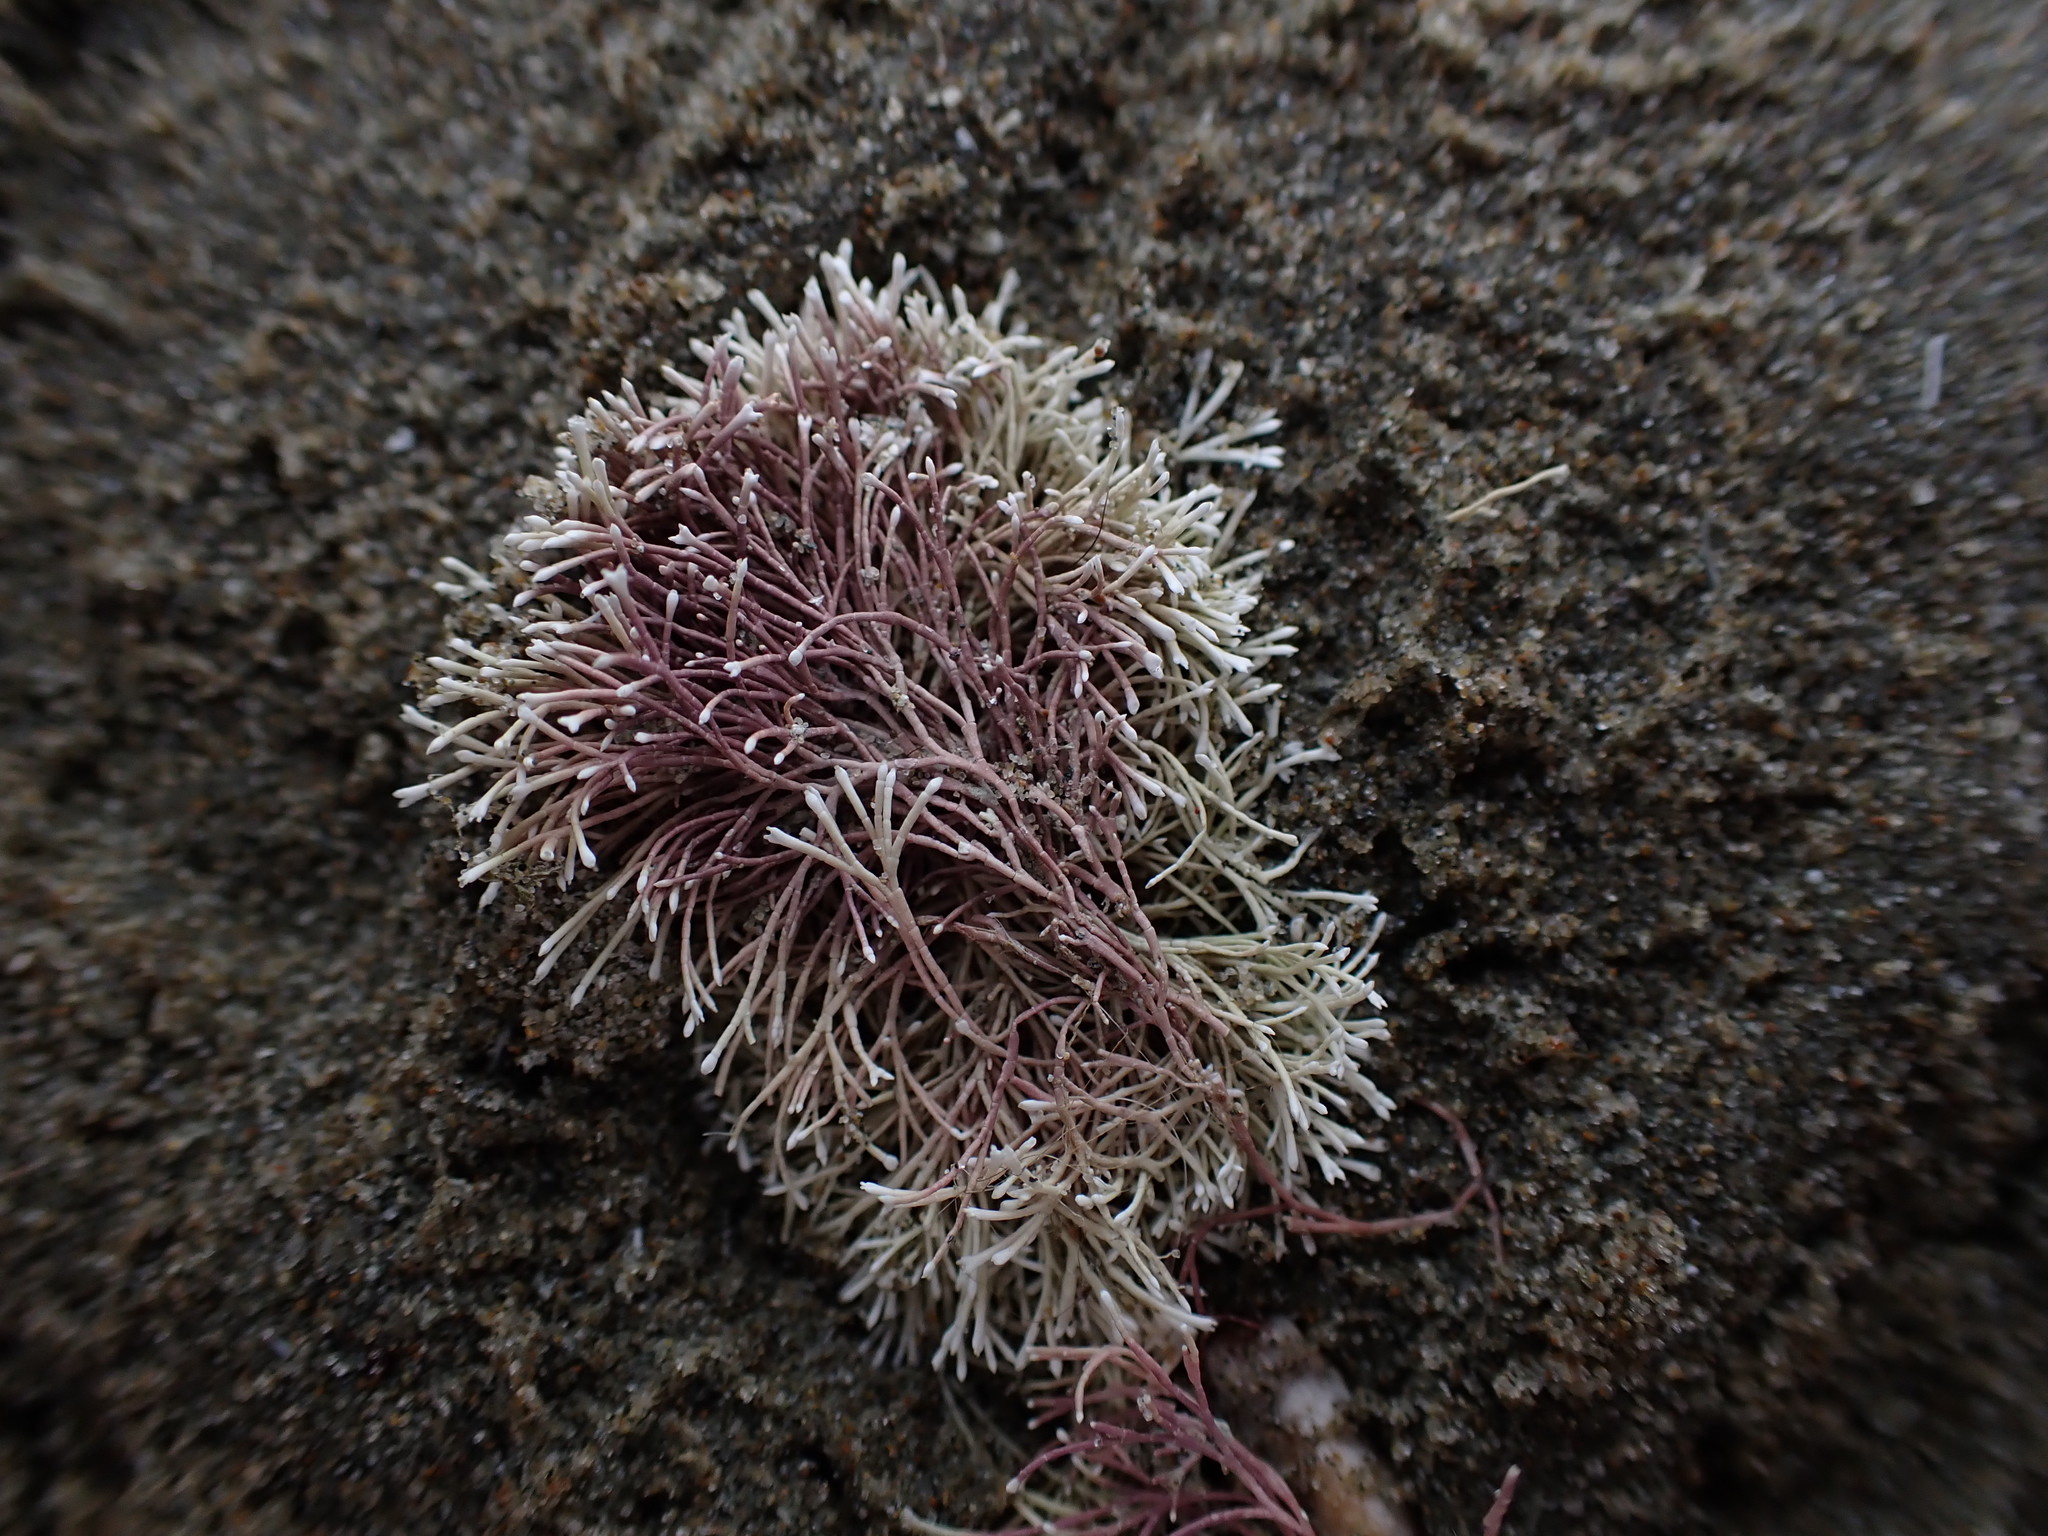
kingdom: Plantae
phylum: Rhodophyta
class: Florideophyceae
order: Corallinales
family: Corallinaceae
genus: Jania
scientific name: Jania sphaeroramosa
